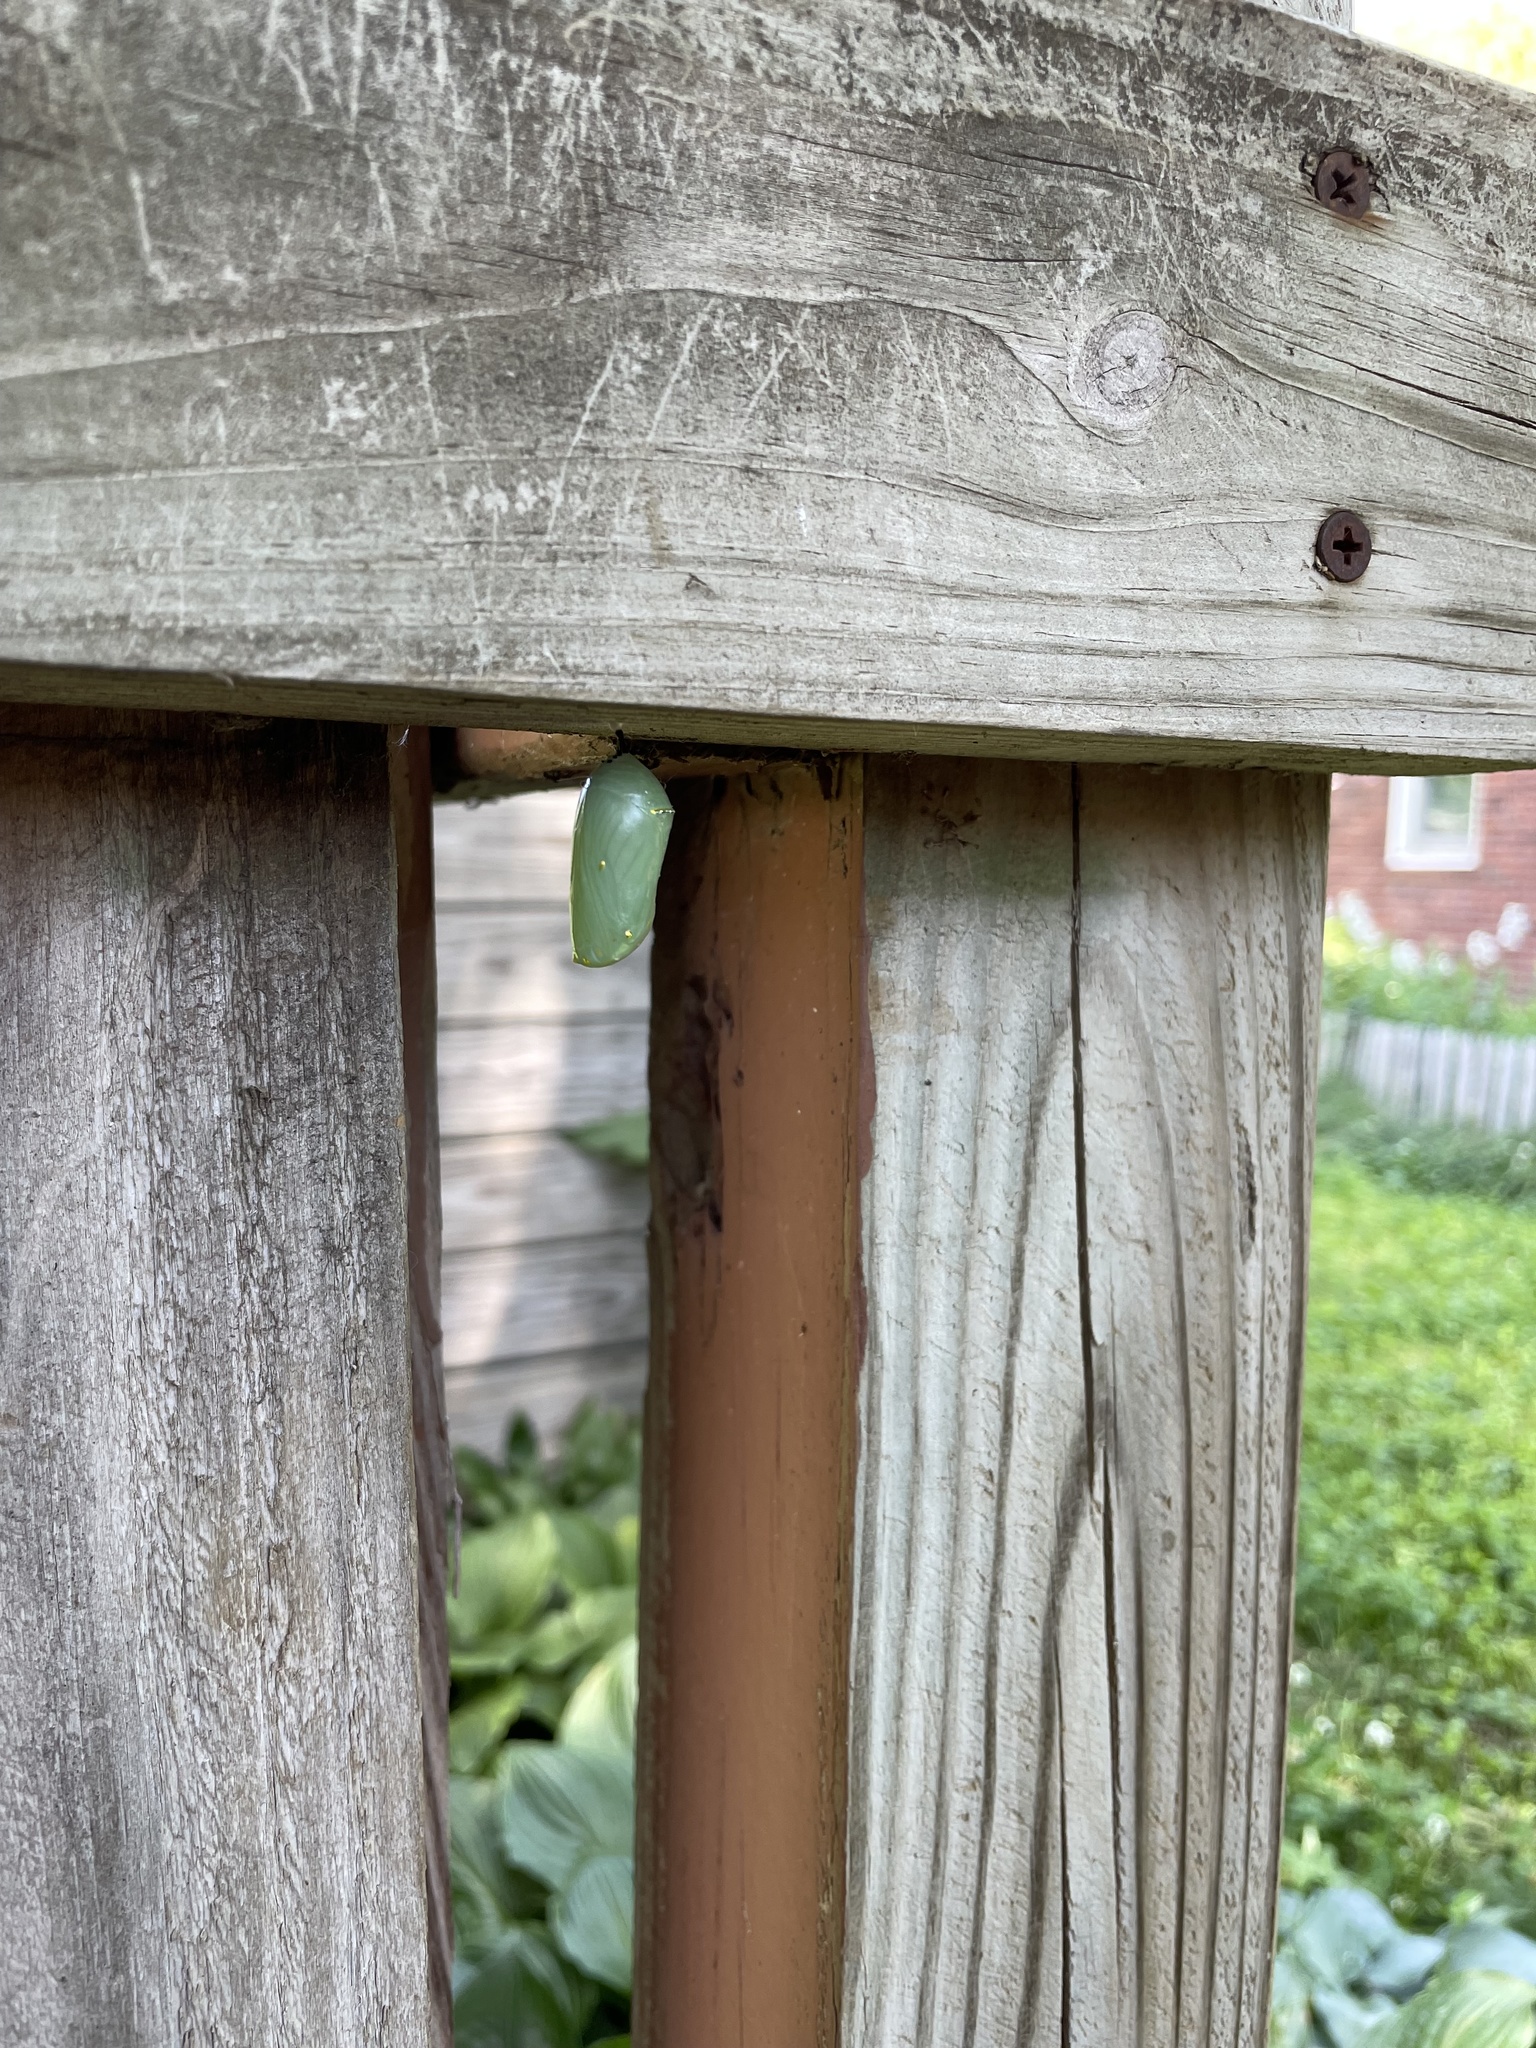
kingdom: Animalia
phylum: Arthropoda
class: Insecta
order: Lepidoptera
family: Nymphalidae
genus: Danaus
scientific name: Danaus plexippus
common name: Monarch
